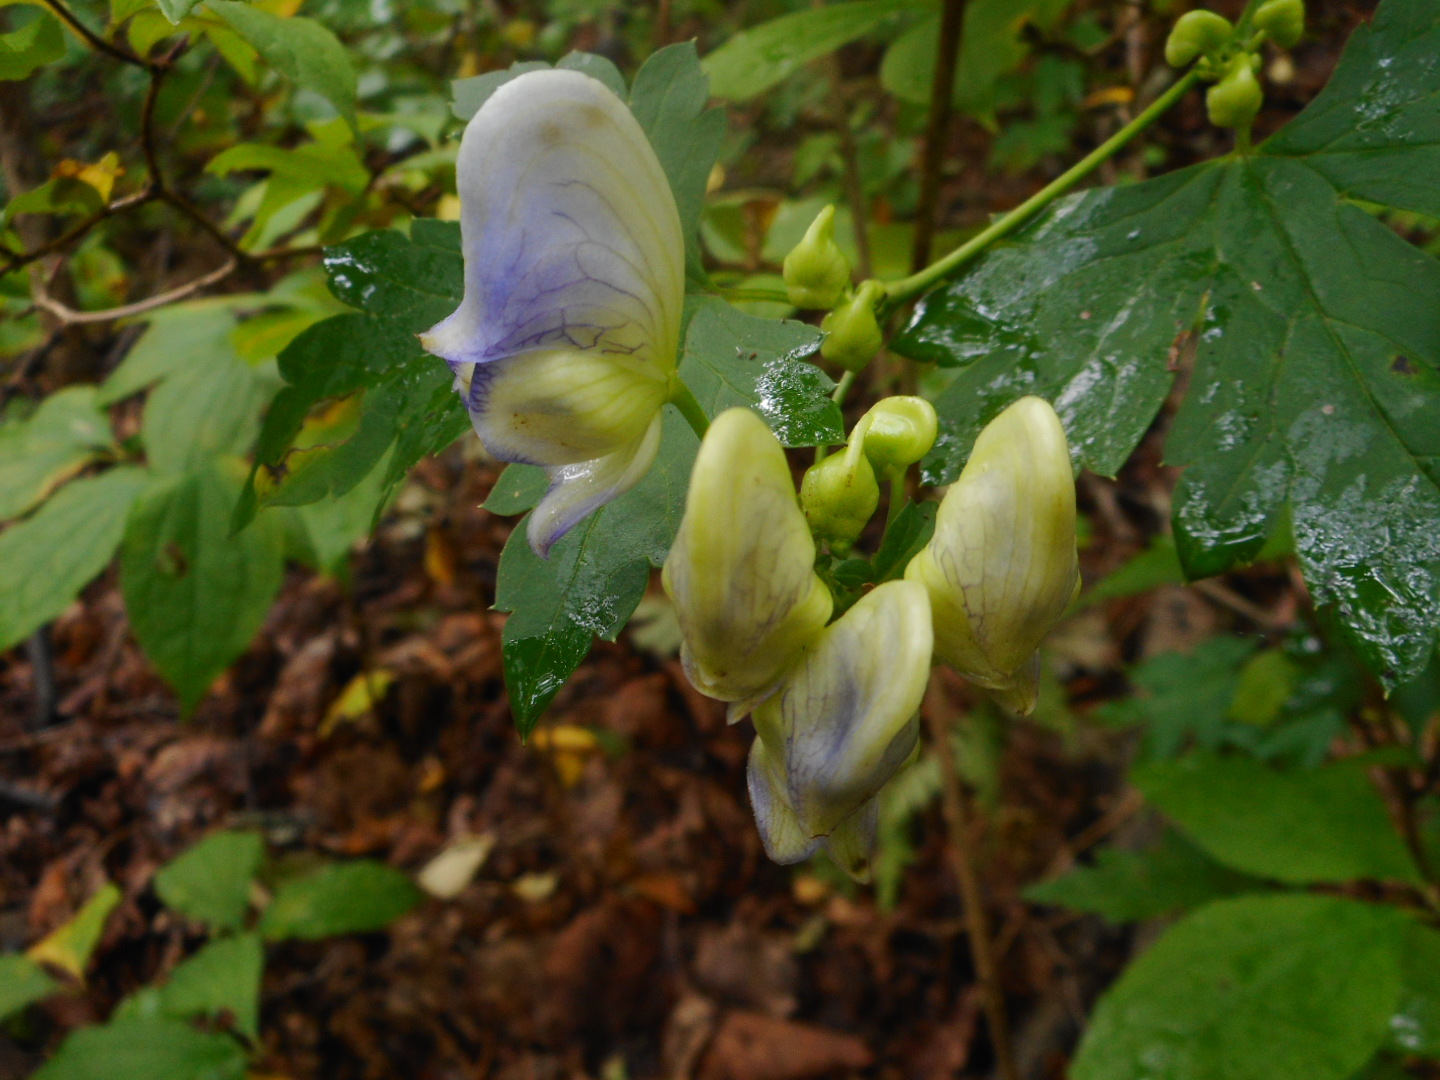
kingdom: Plantae
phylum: Tracheophyta
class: Magnoliopsida
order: Ranunculales
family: Ranunculaceae
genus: Aconitum
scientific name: Aconitum sczukinii
